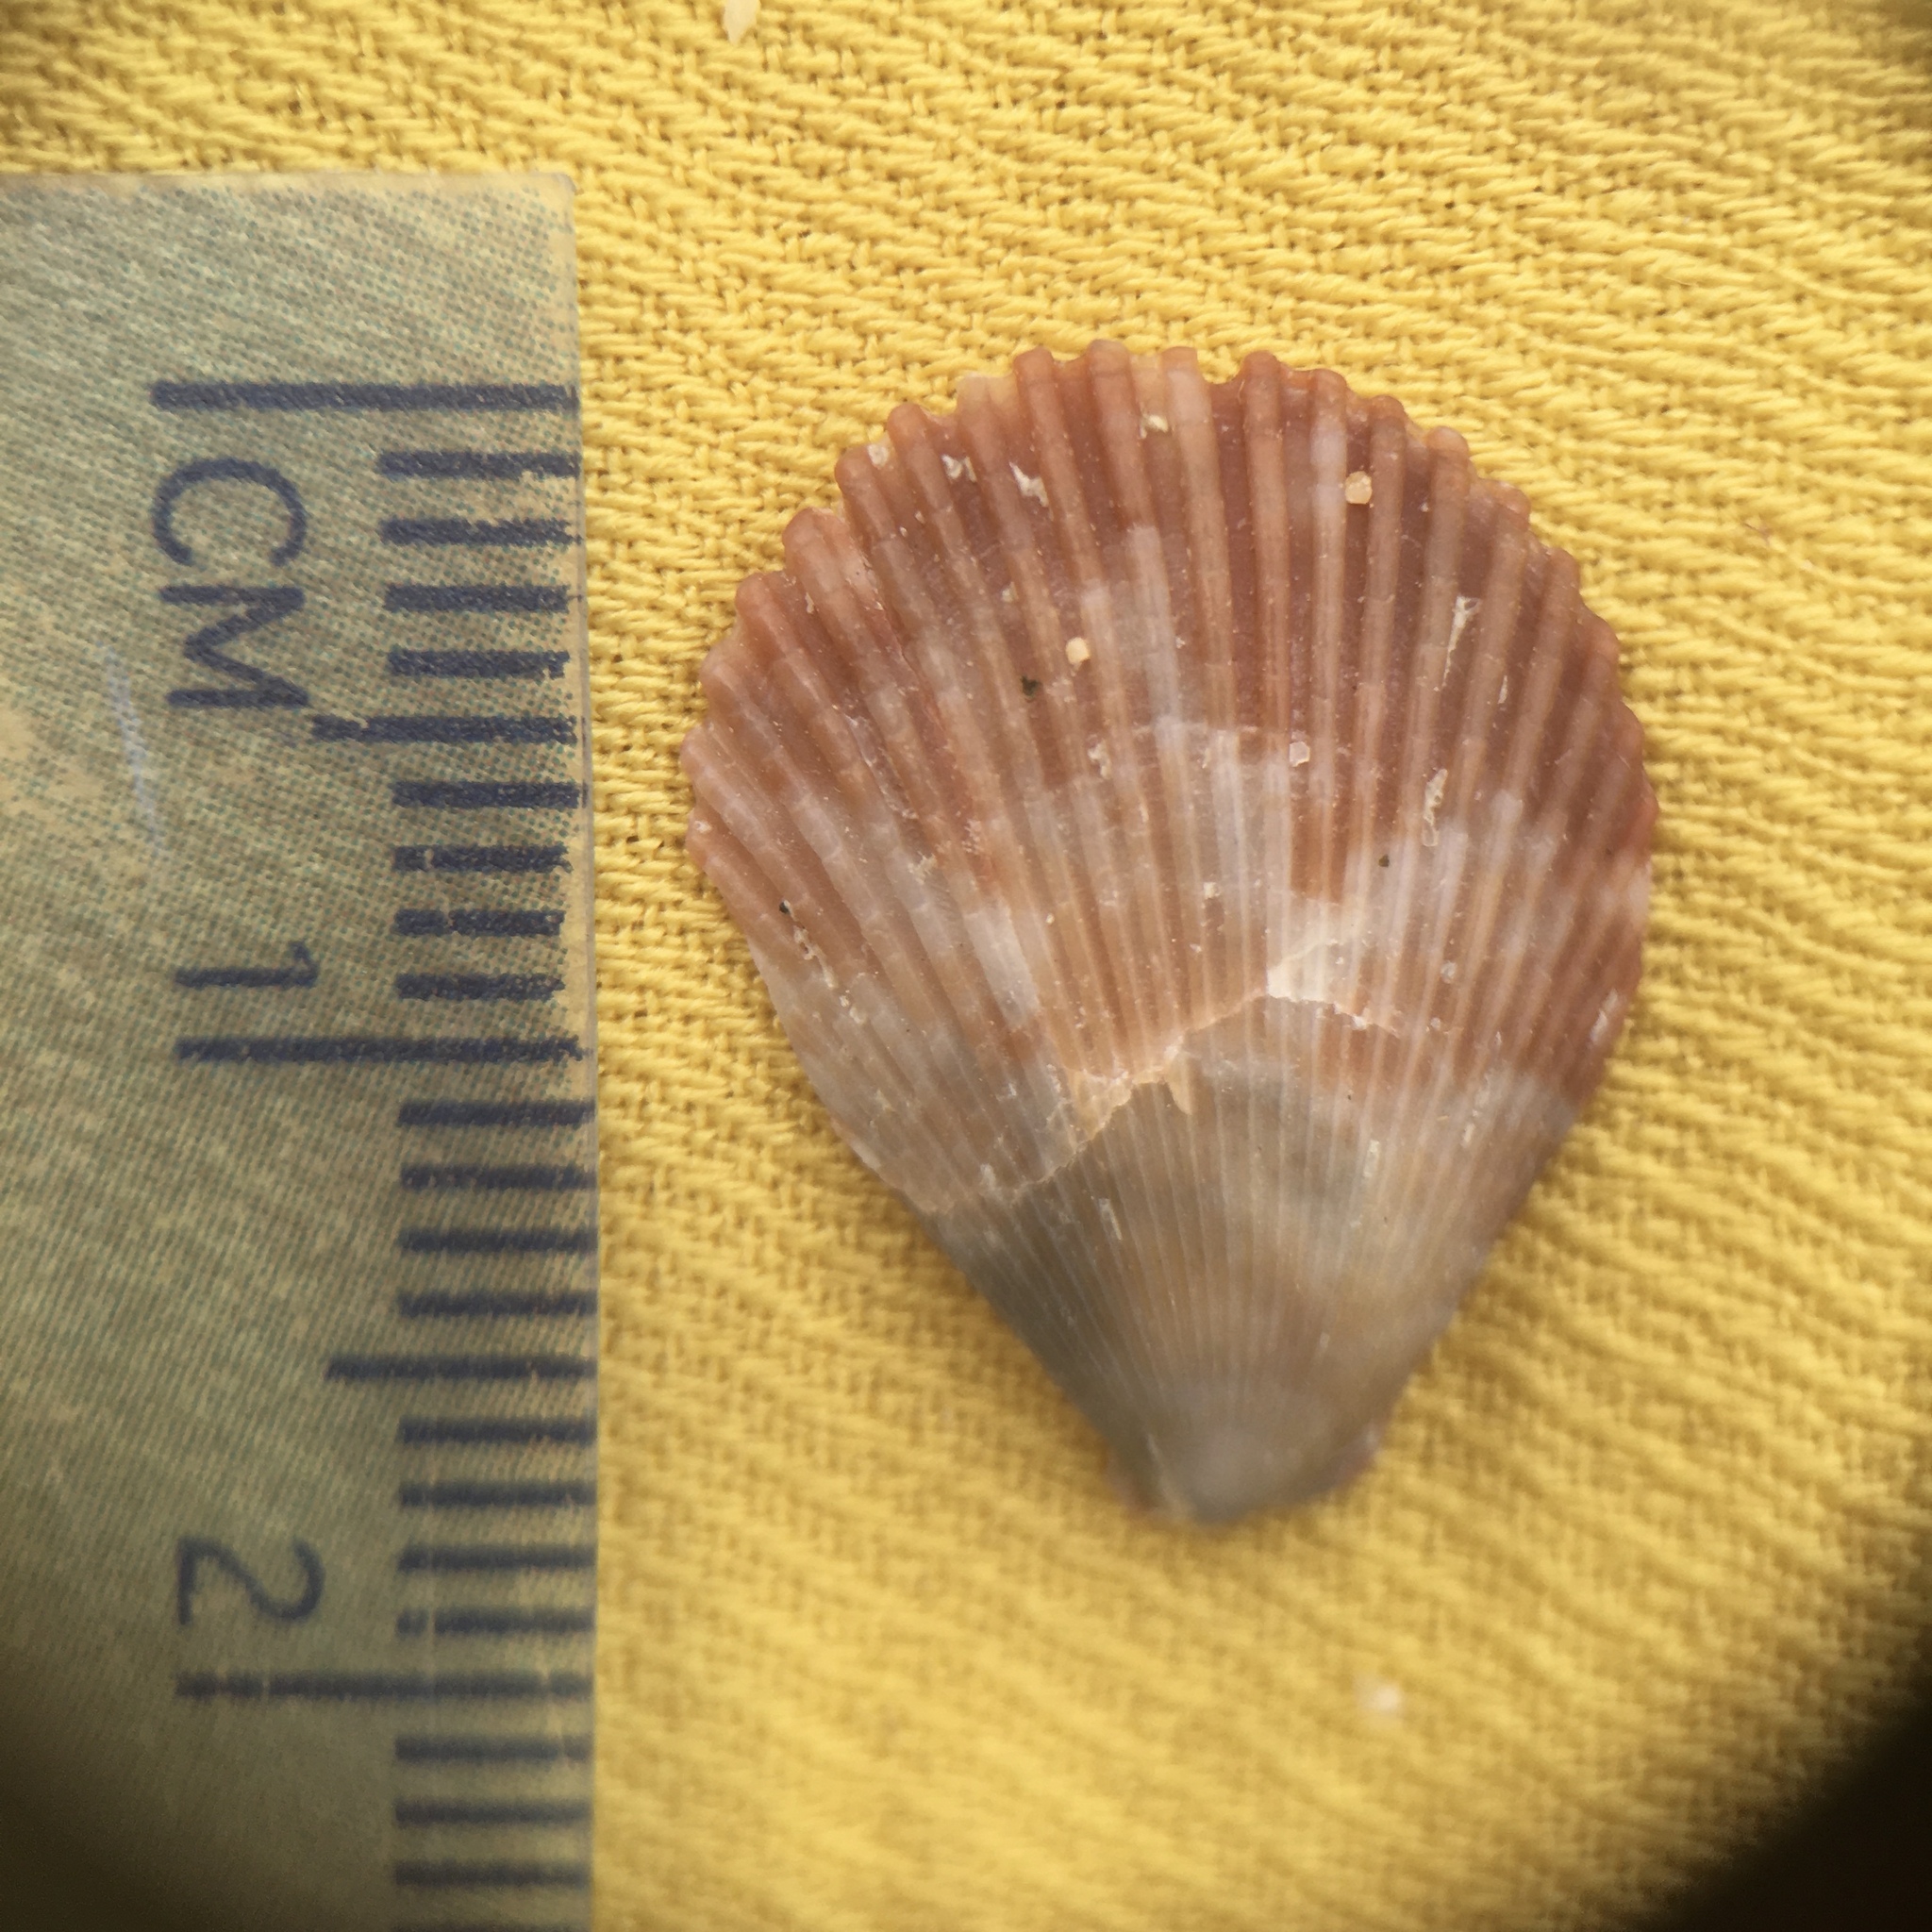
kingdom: Animalia
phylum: Mollusca
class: Bivalvia
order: Pectinida
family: Pectinidae
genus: Mimachlamys
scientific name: Mimachlamys varia
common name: Variegated scallop
